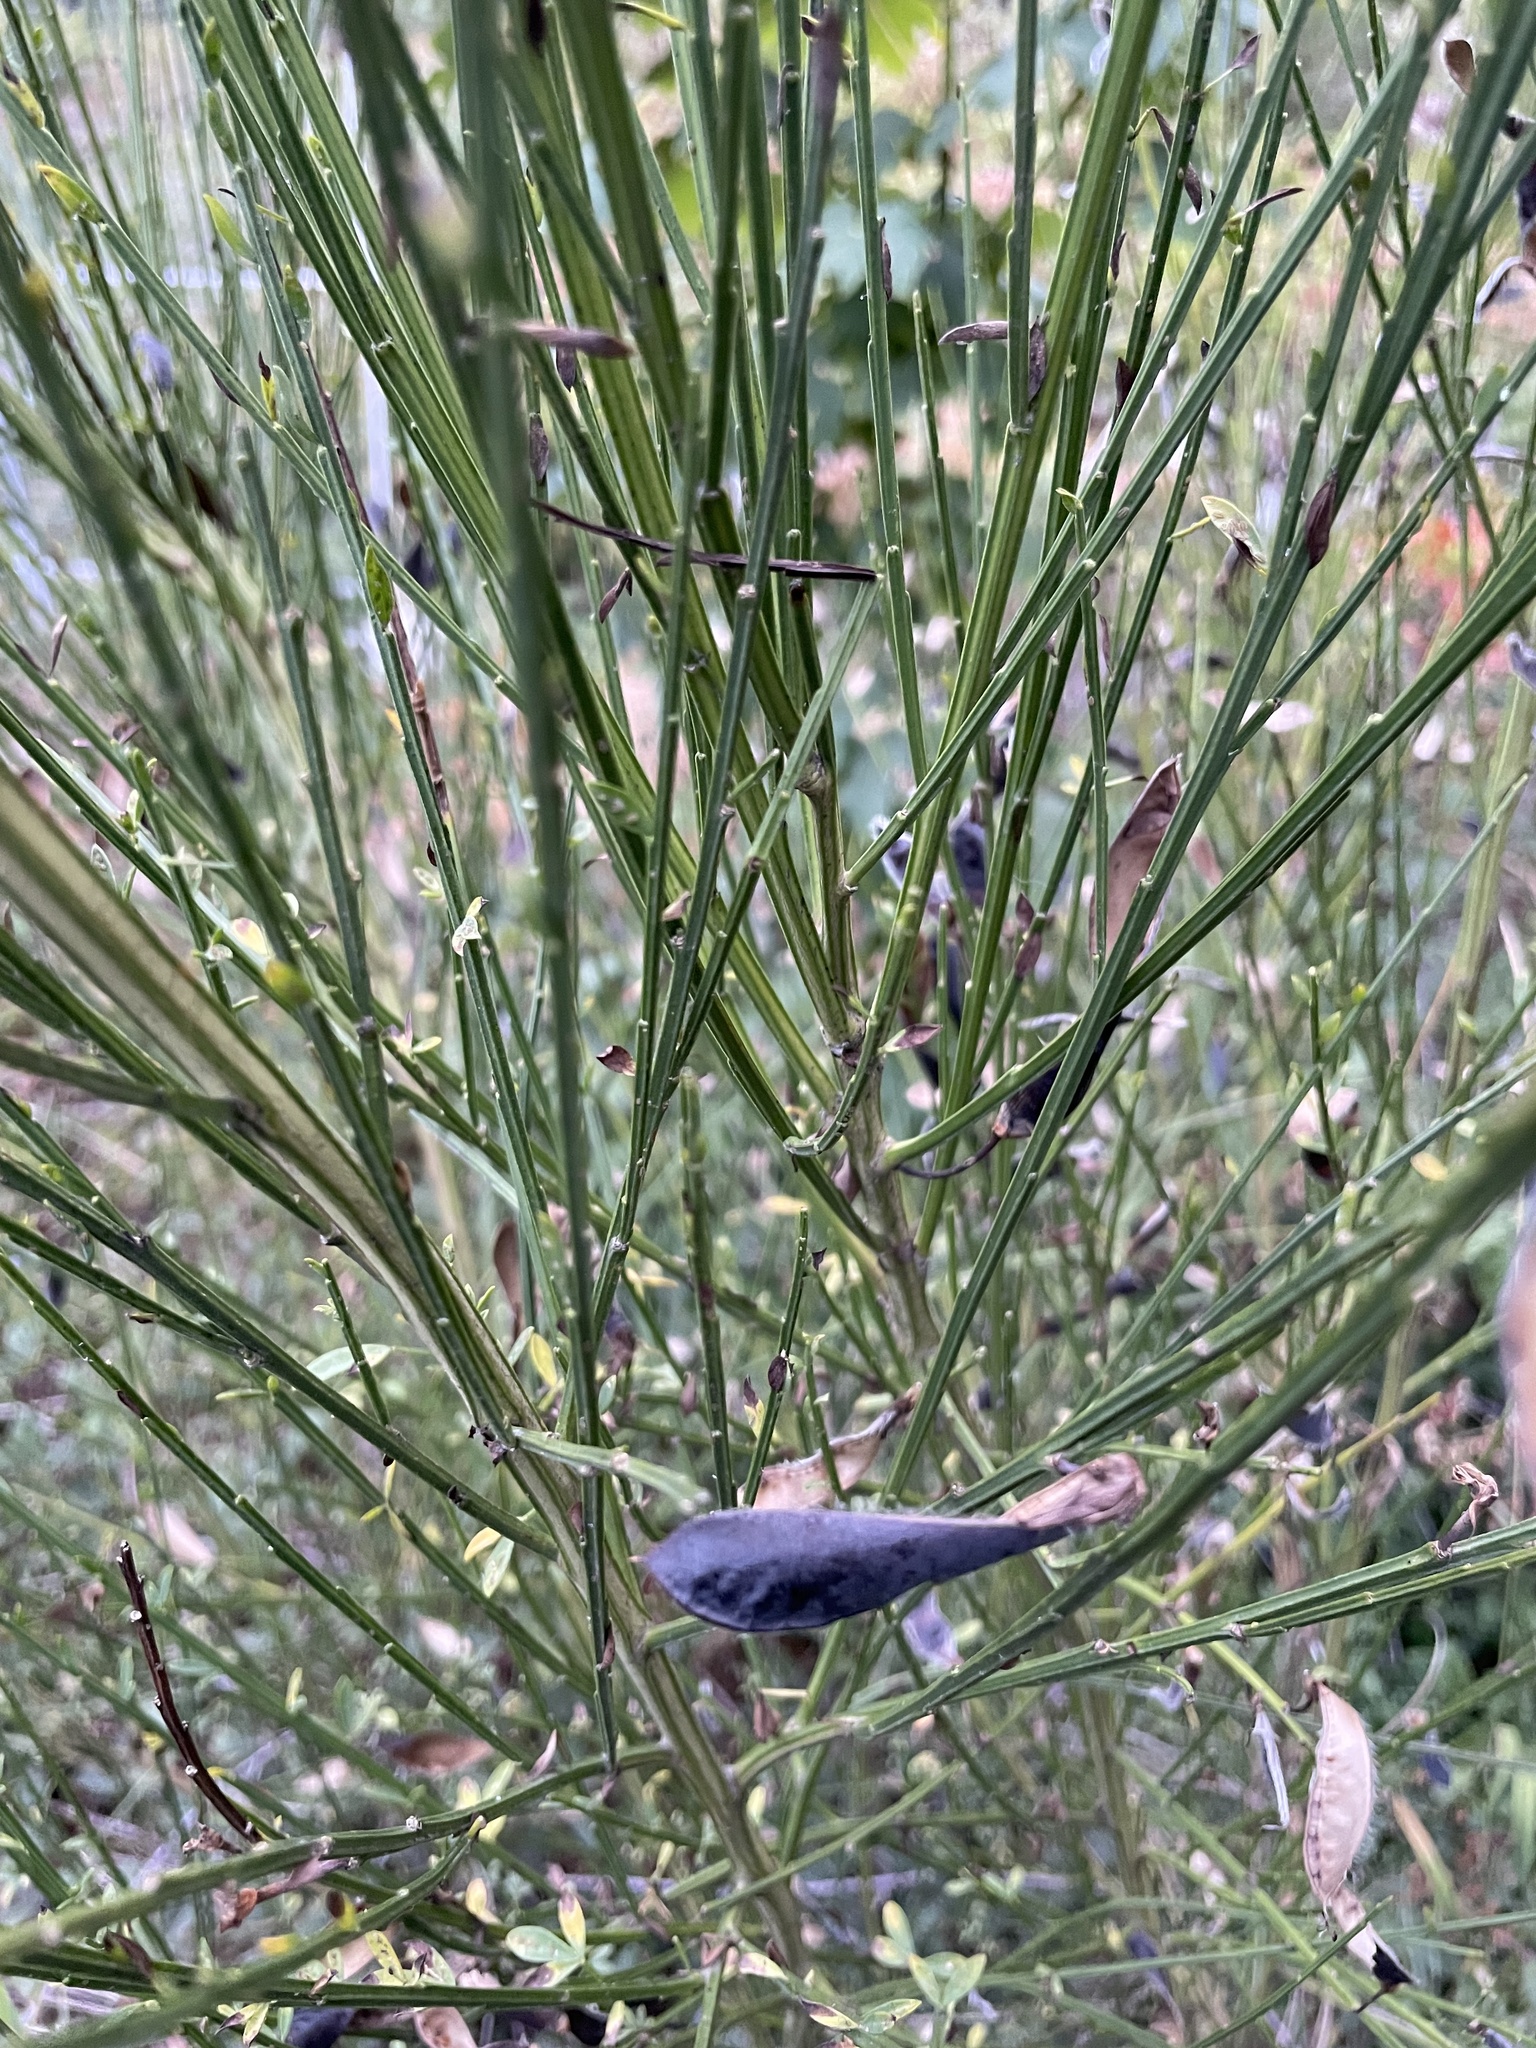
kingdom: Plantae
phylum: Tracheophyta
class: Magnoliopsida
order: Fabales
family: Fabaceae
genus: Cytisus
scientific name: Cytisus scoparius
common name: Scotch broom
